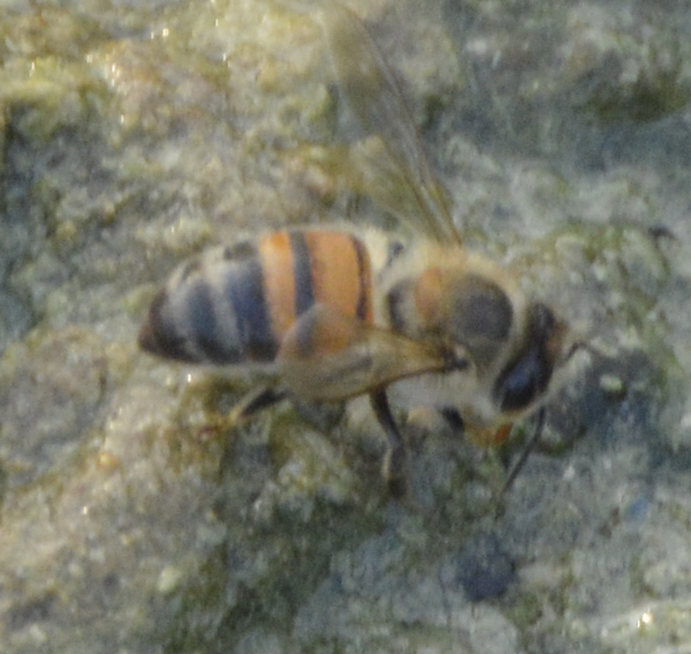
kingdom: Animalia
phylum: Arthropoda
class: Insecta
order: Hymenoptera
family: Apidae
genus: Apis
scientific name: Apis mellifera
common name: Honey bee
